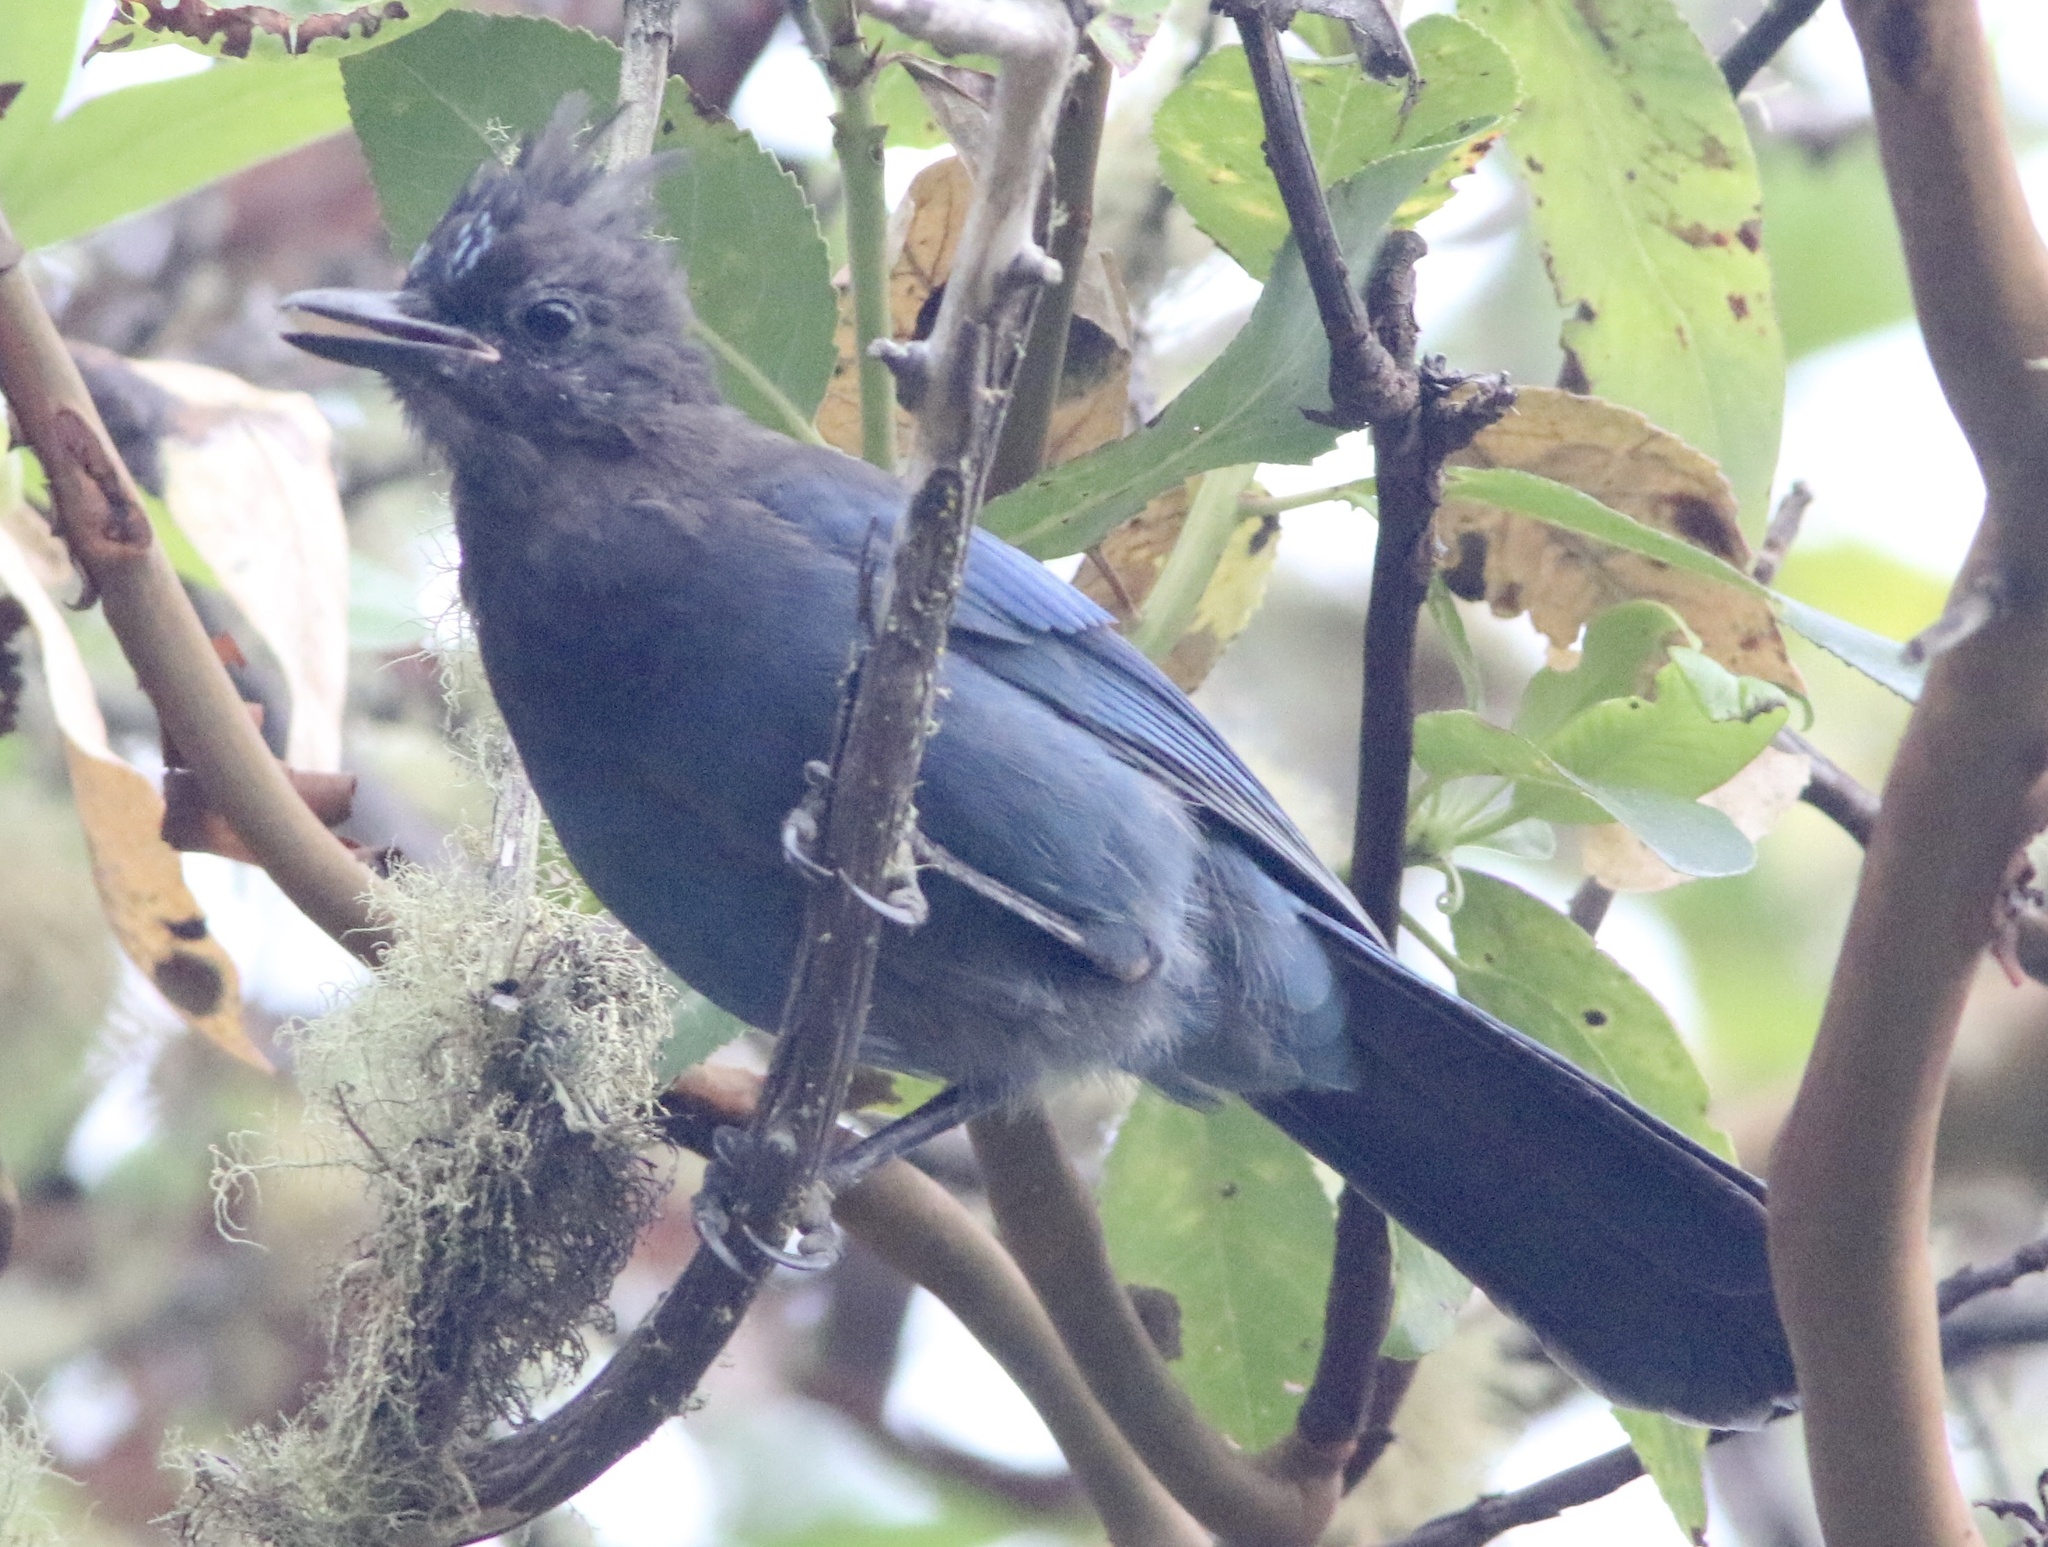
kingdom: Animalia
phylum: Chordata
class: Aves
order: Passeriformes
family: Corvidae
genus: Cyanocitta
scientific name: Cyanocitta stelleri
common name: Steller's jay
